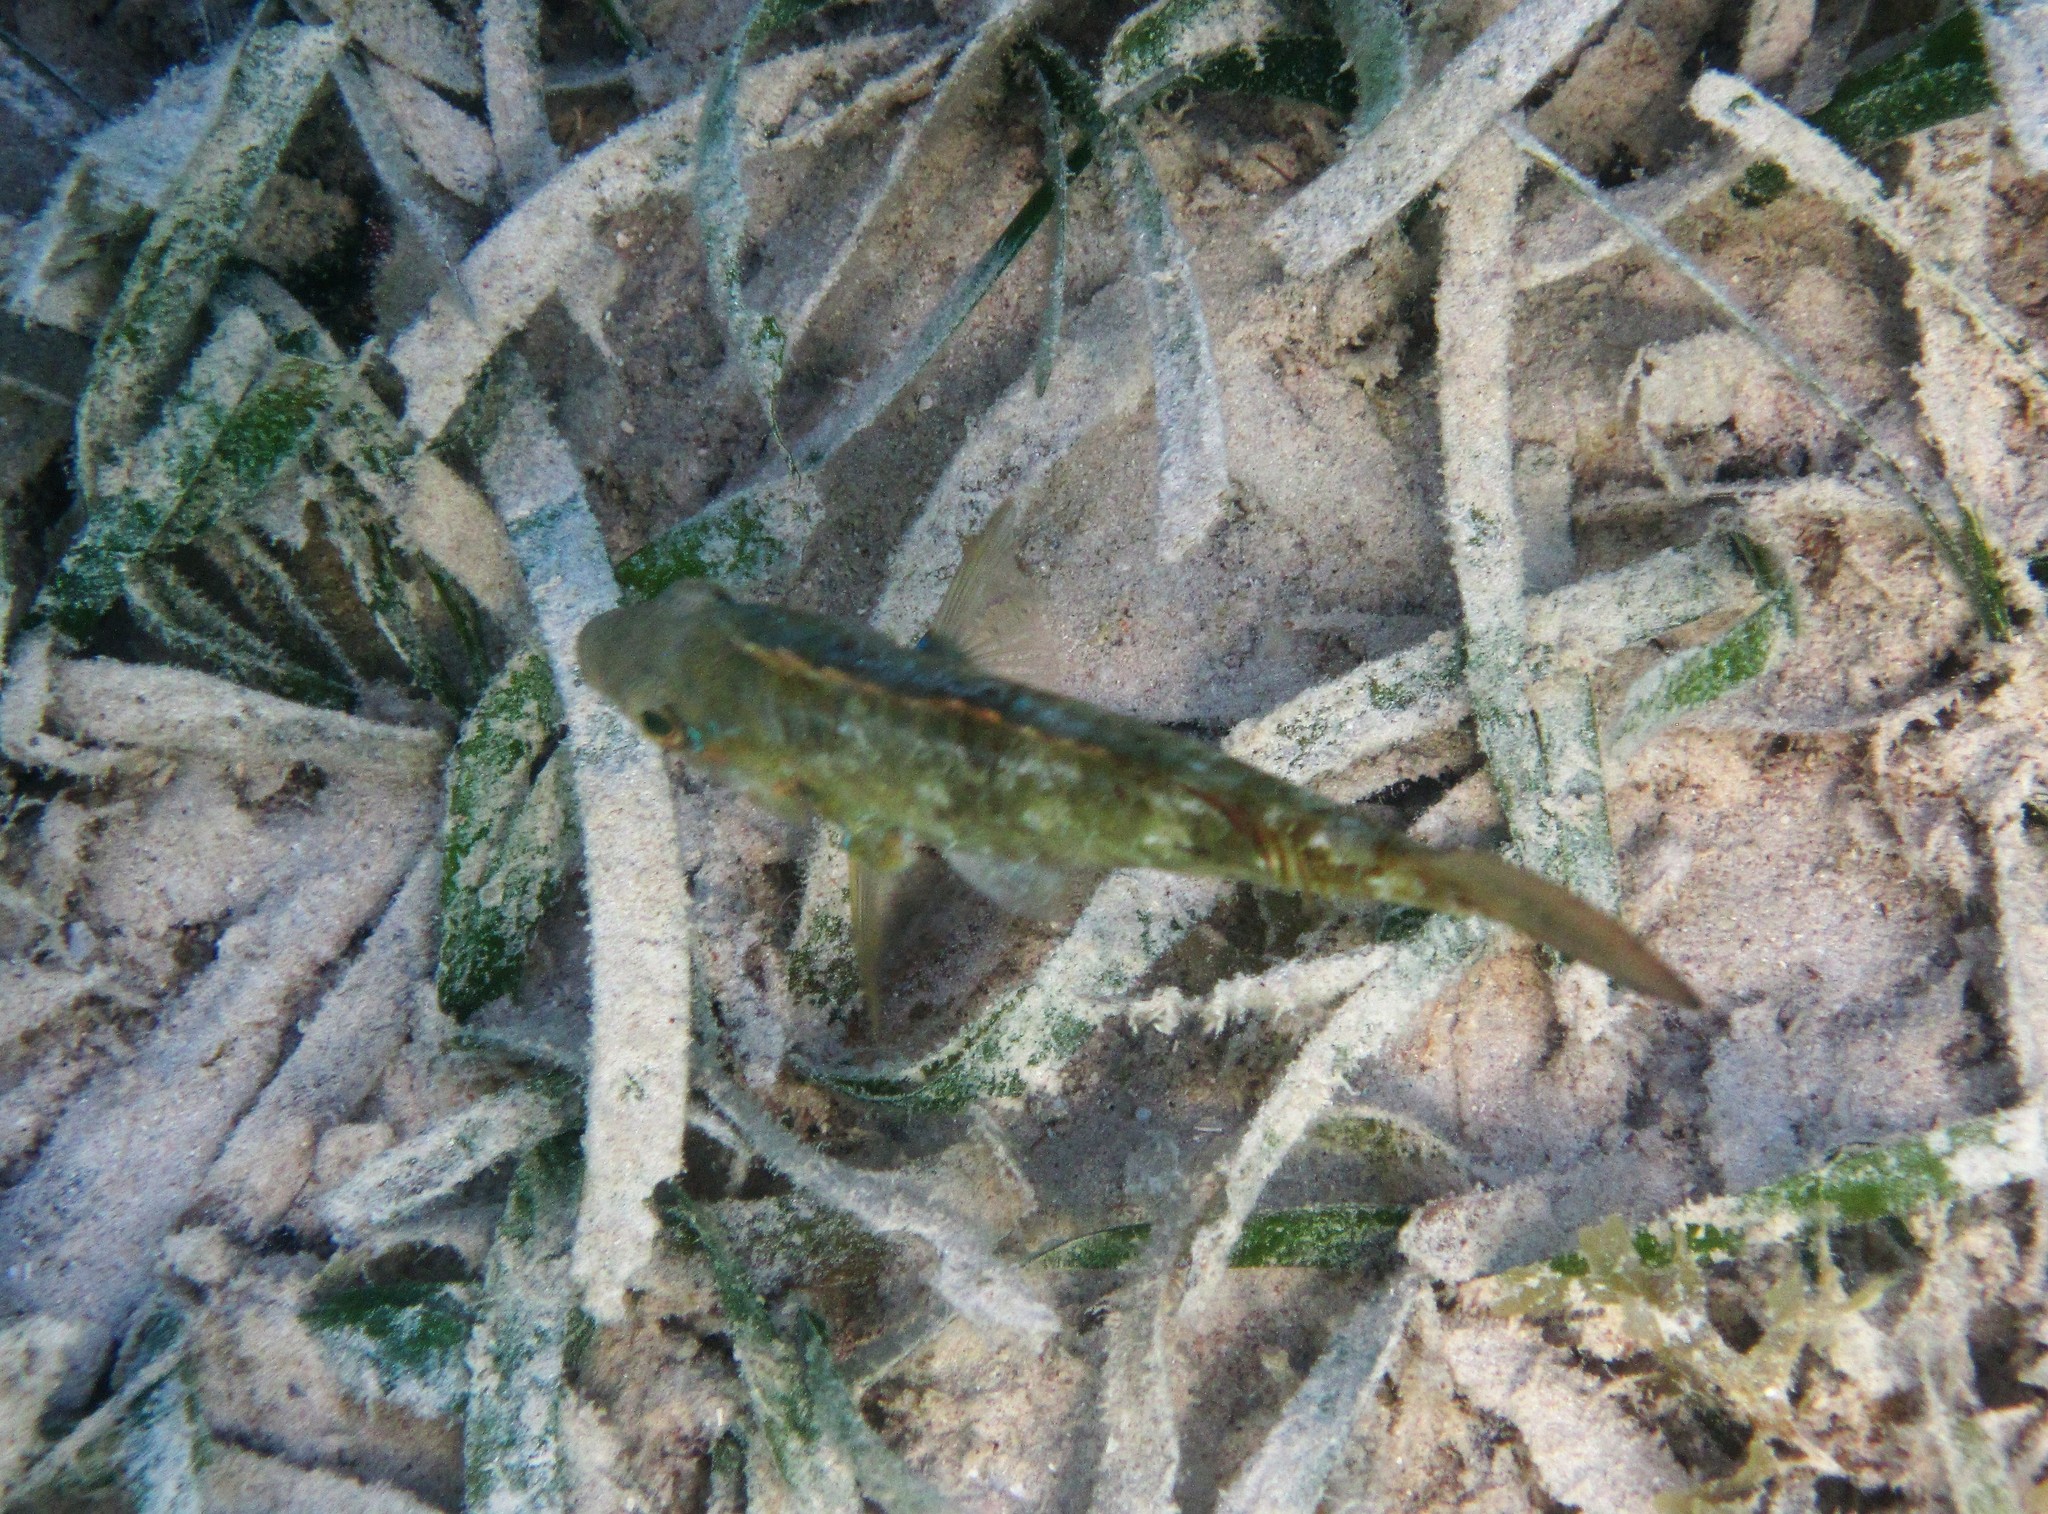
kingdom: Animalia
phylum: Chordata
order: Perciformes
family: Scaridae
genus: Sparisoma
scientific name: Sparisoma radians
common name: Bucktooth parrotfish
